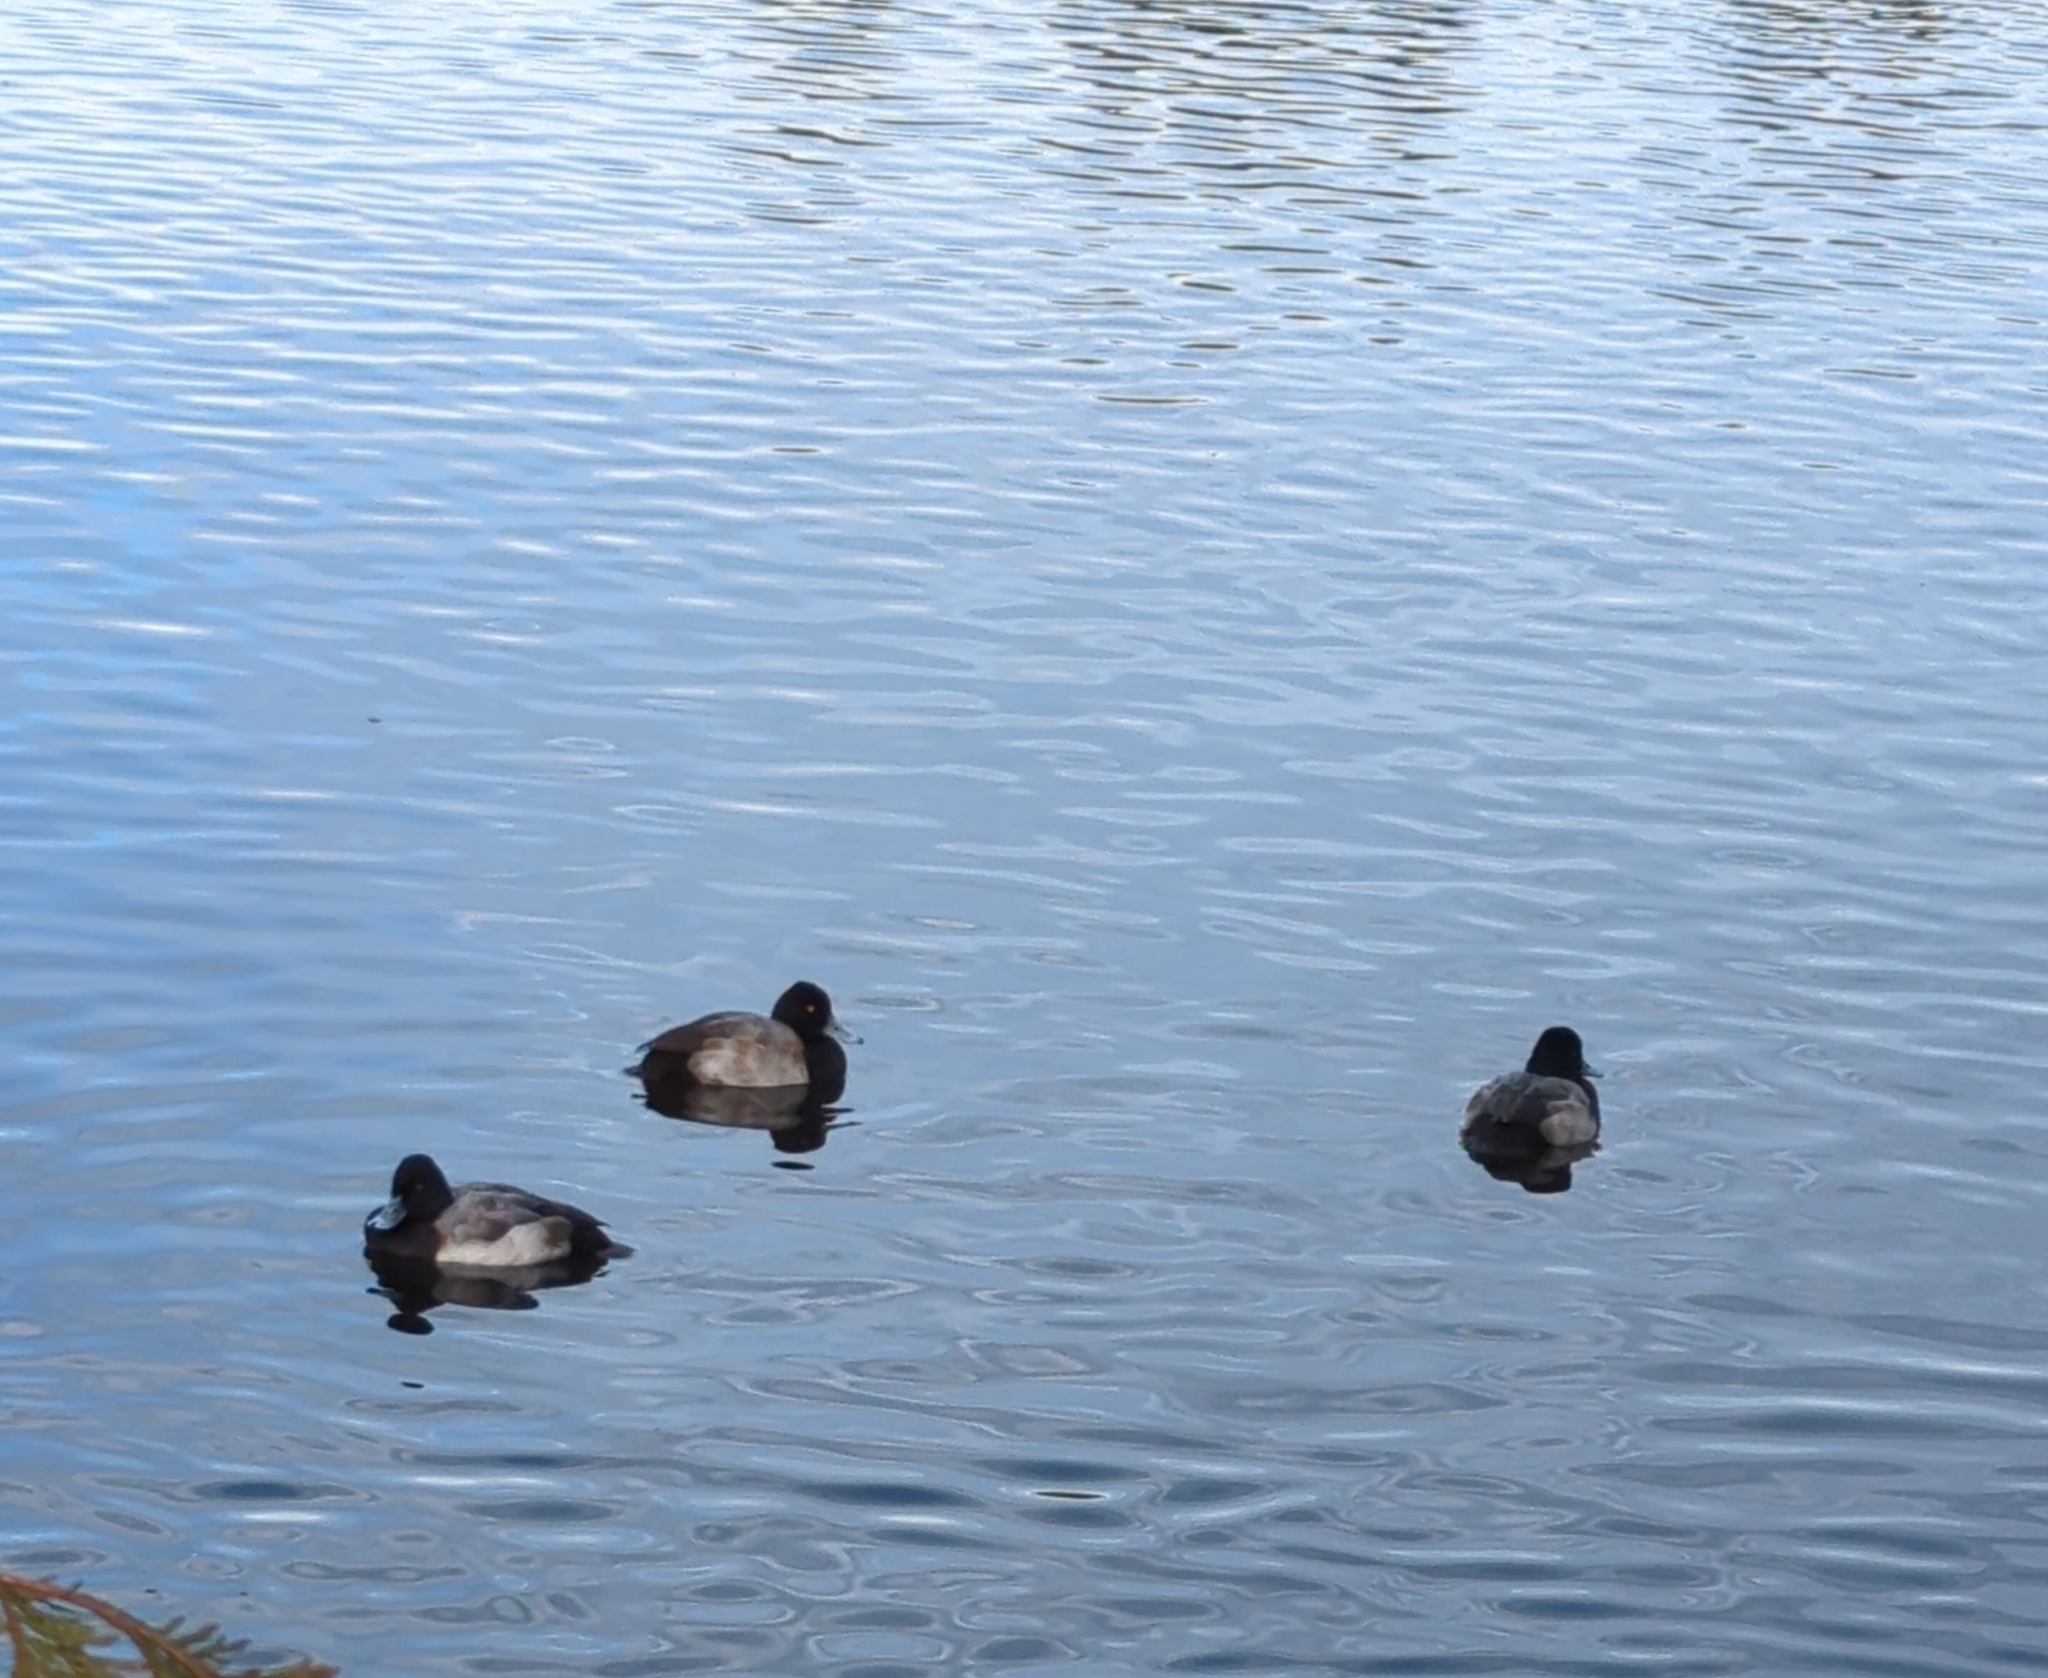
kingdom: Animalia
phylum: Chordata
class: Aves
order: Anseriformes
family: Anatidae
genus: Aythya
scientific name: Aythya affinis
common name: Lesser scaup
